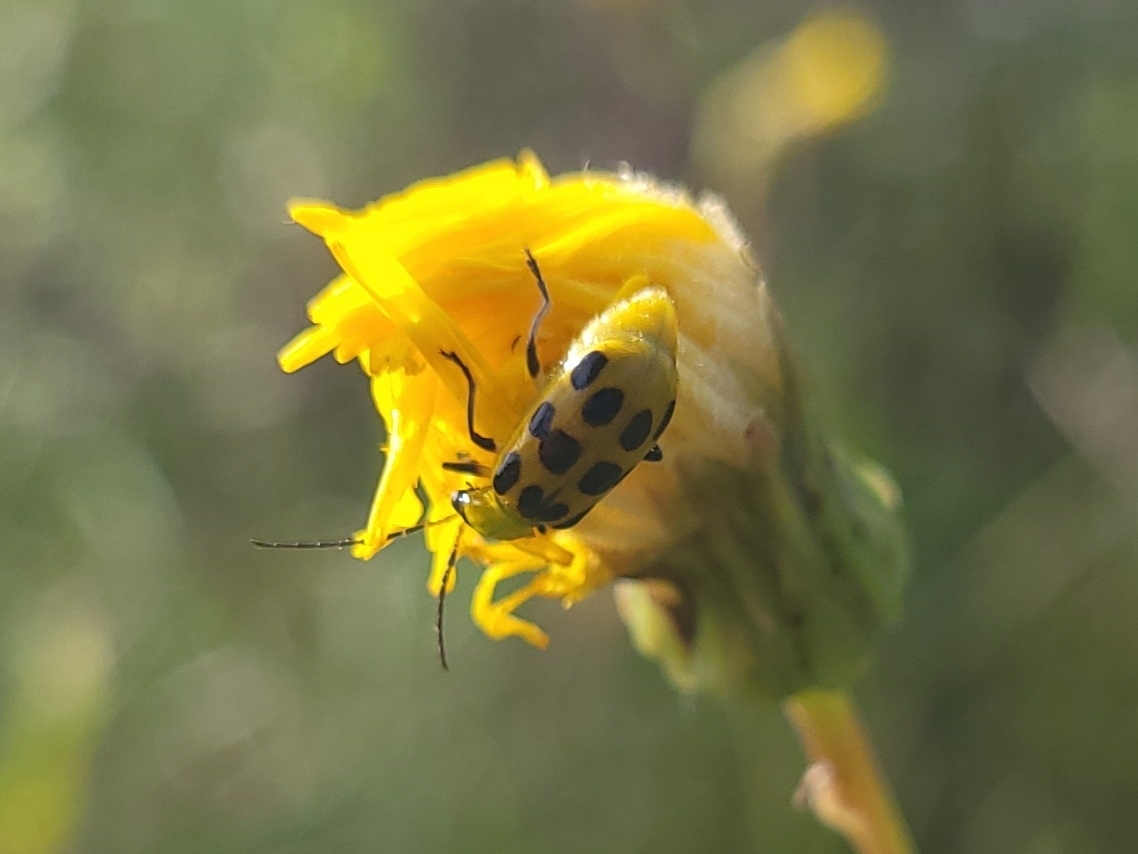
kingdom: Animalia
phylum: Arthropoda
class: Insecta
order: Coleoptera
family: Chrysomelidae
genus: Diabrotica
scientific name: Diabrotica undecimpunctata
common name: Spotted cucumber beetle
